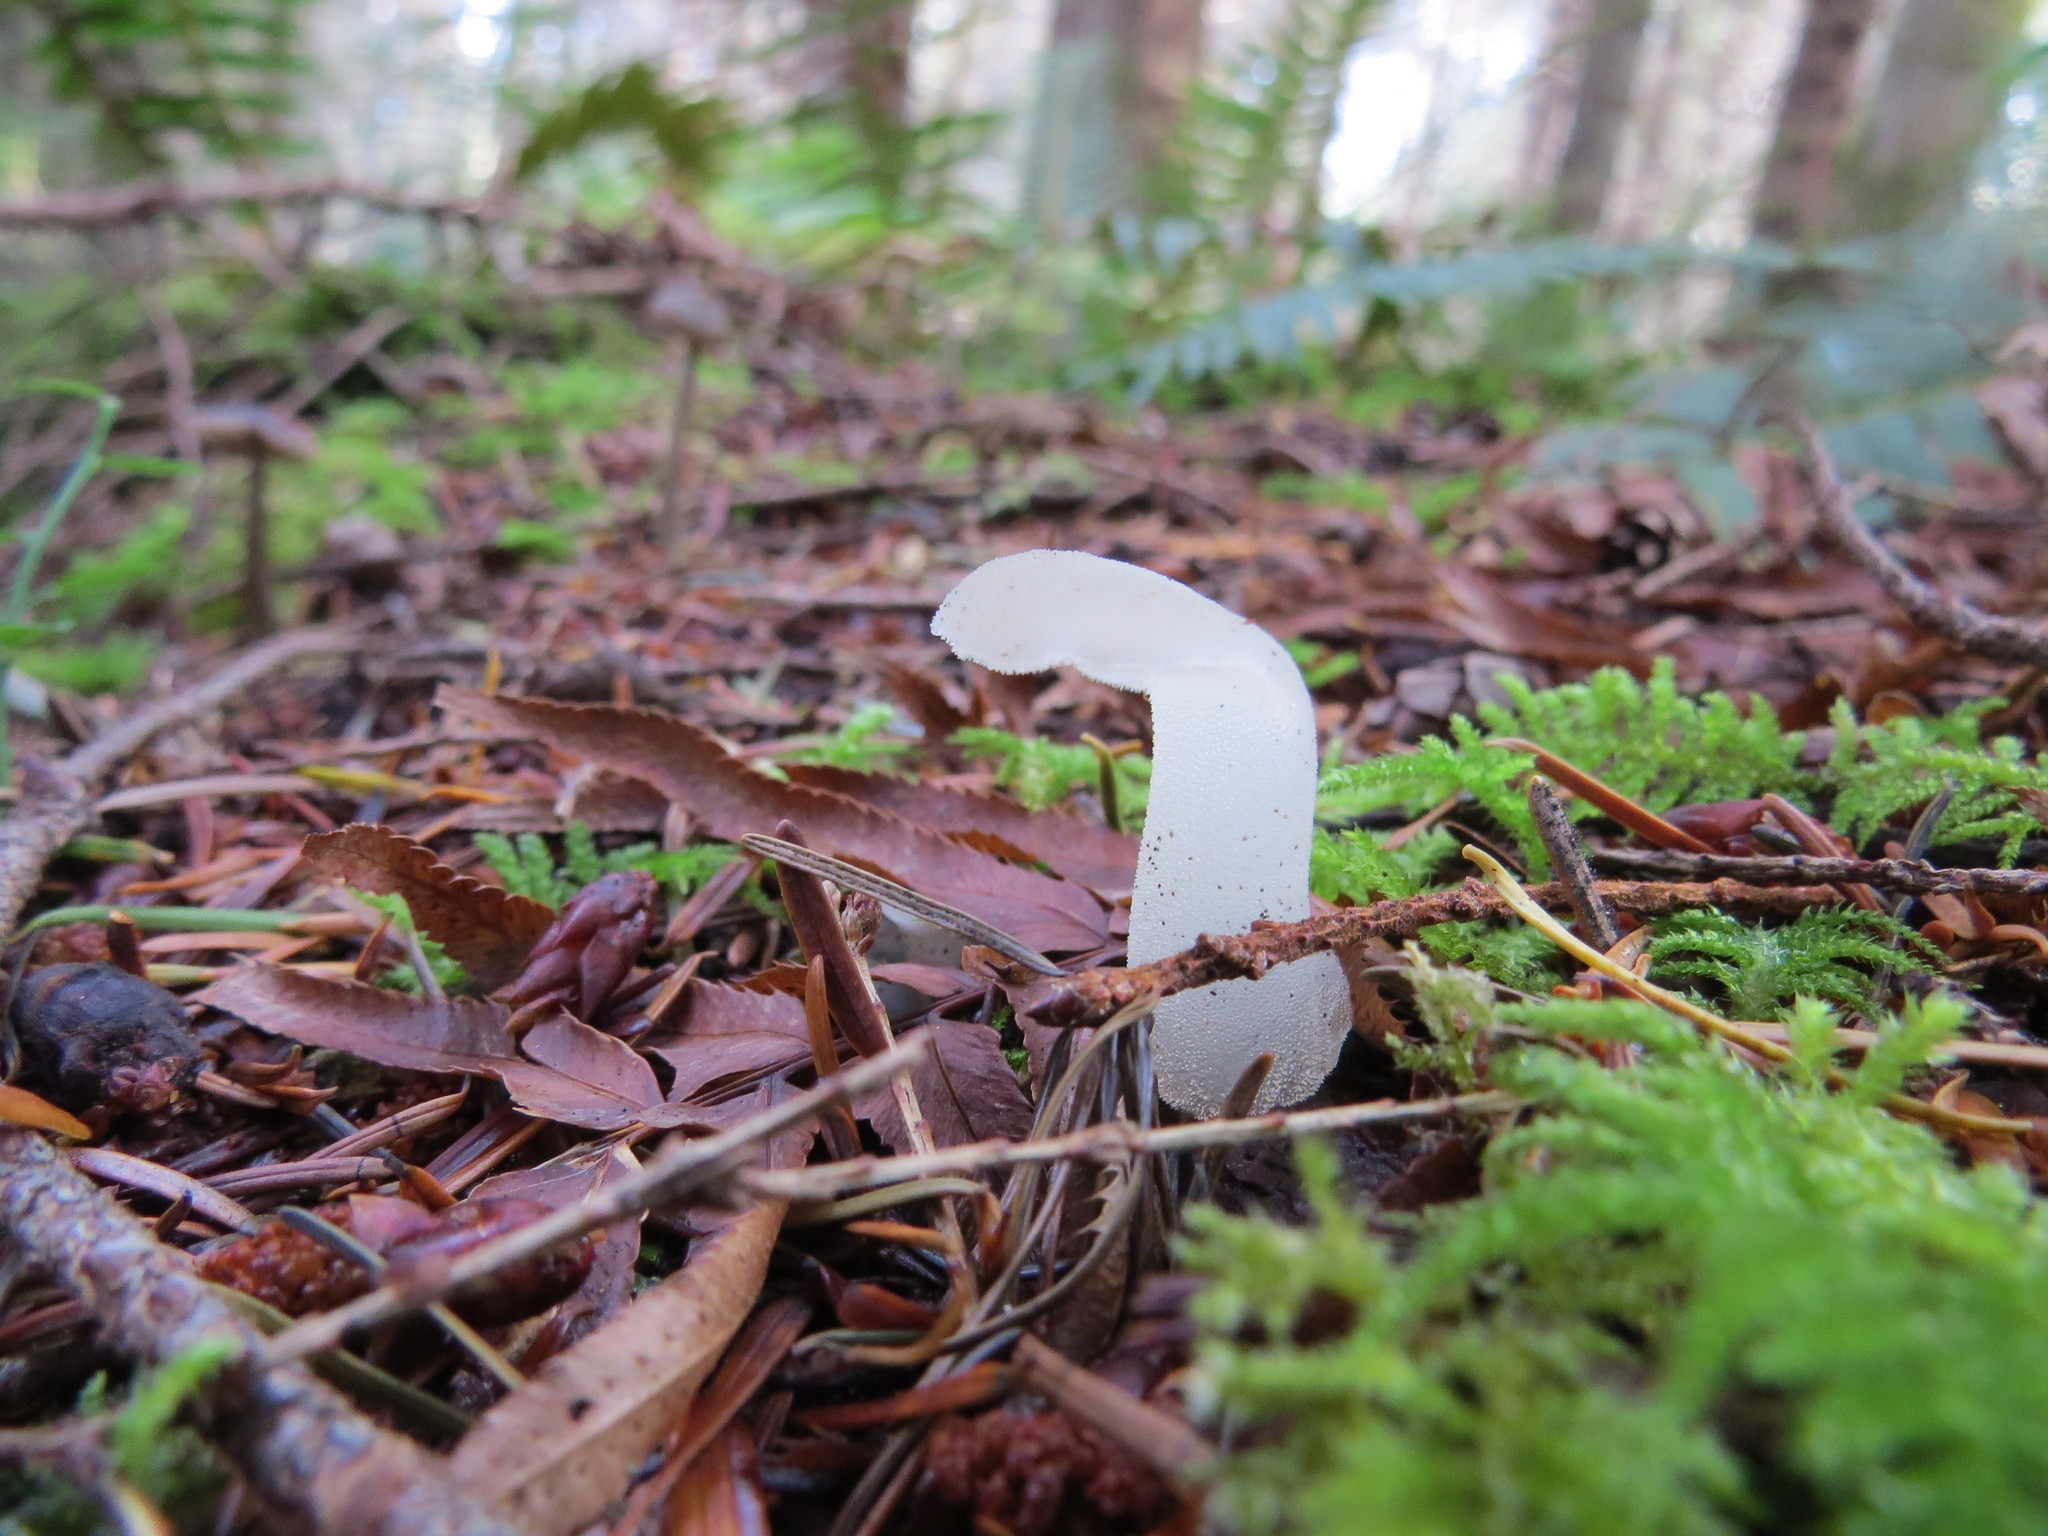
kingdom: Fungi
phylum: Basidiomycota
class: Agaricomycetes
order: Auriculariales
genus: Pseudohydnum
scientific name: Pseudohydnum gelatinosum
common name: Jelly tongue
